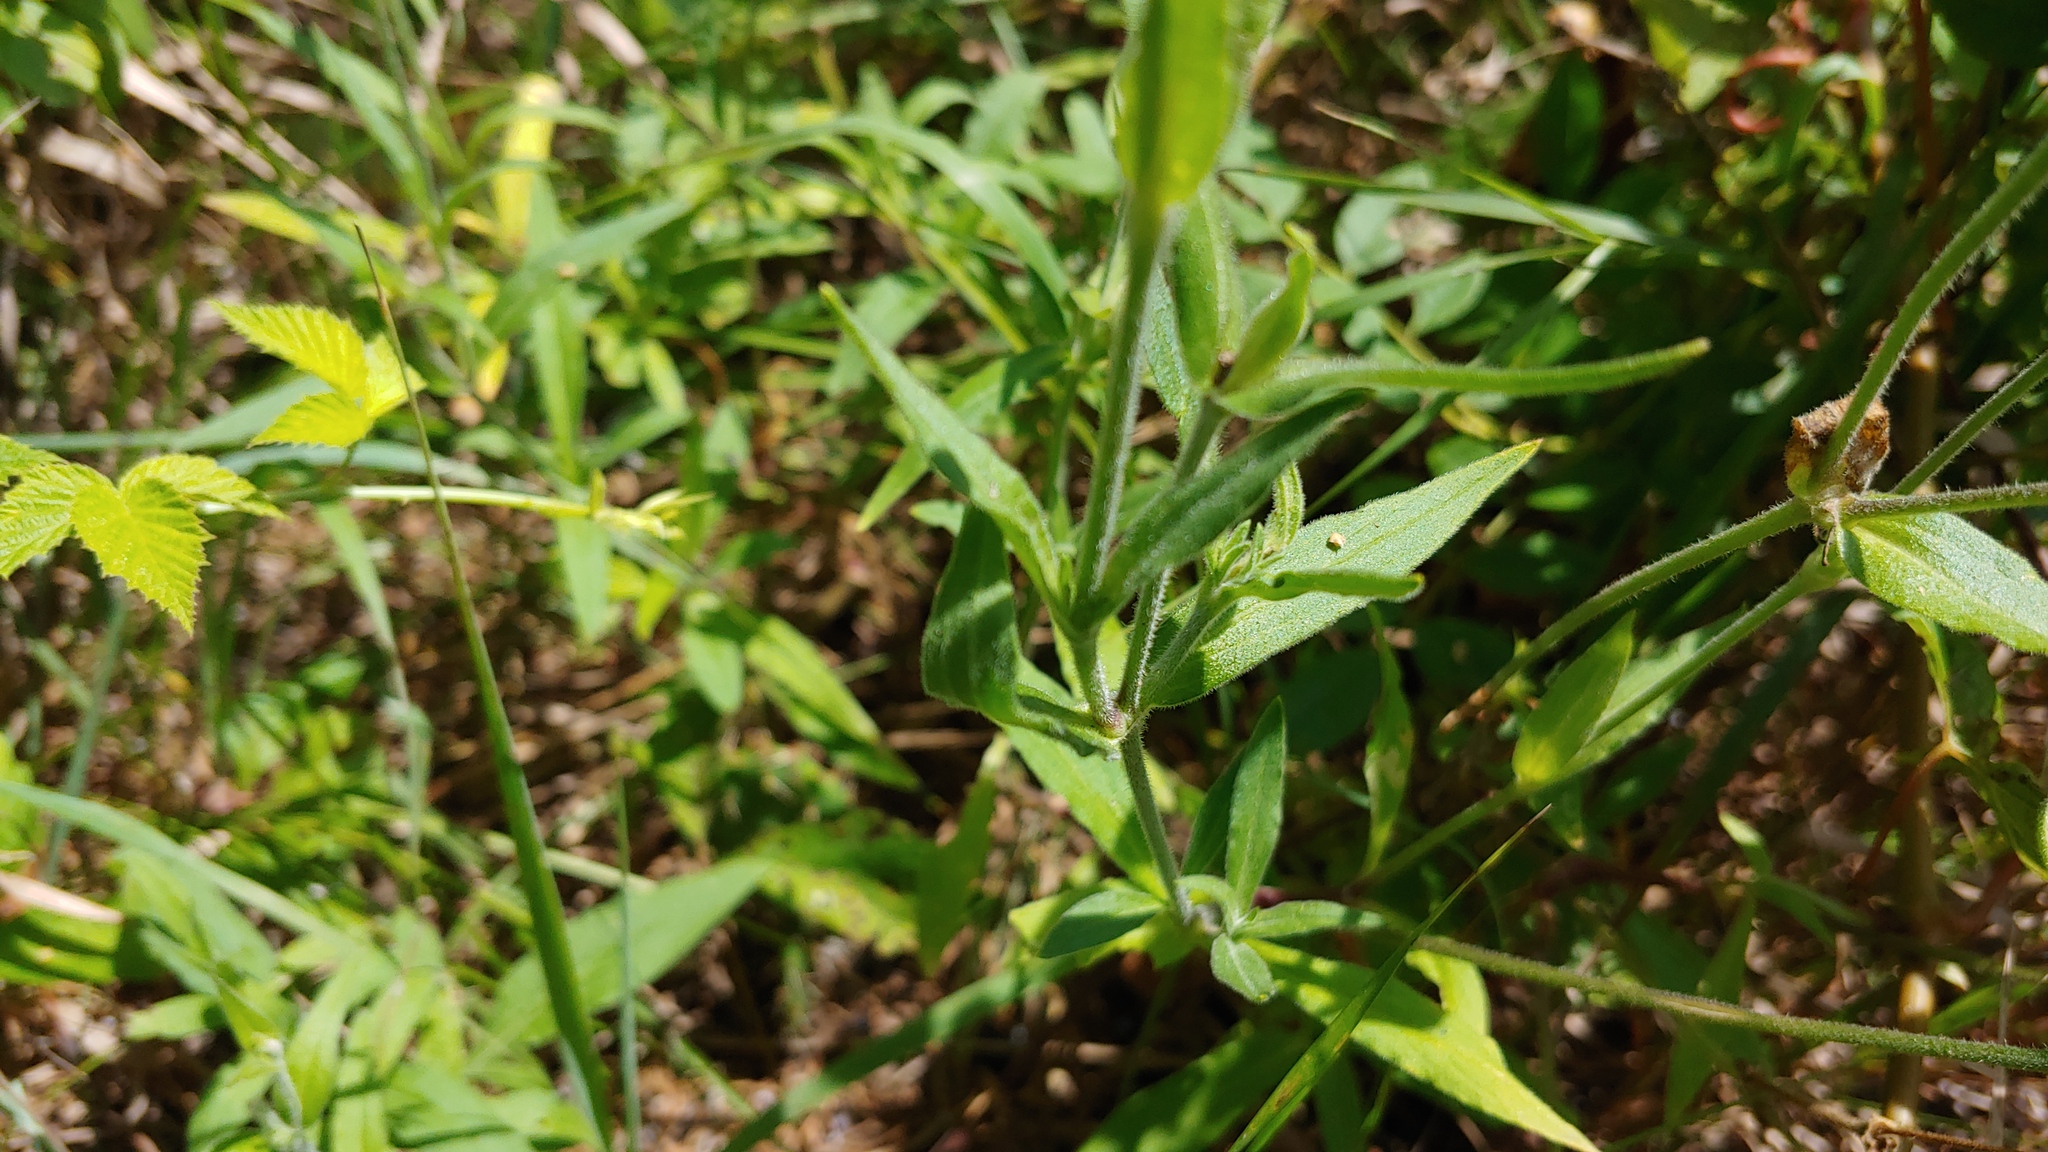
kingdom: Plantae
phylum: Tracheophyta
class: Magnoliopsida
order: Caryophyllales
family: Caryophyllaceae
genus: Silene
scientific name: Silene latifolia
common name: White campion
